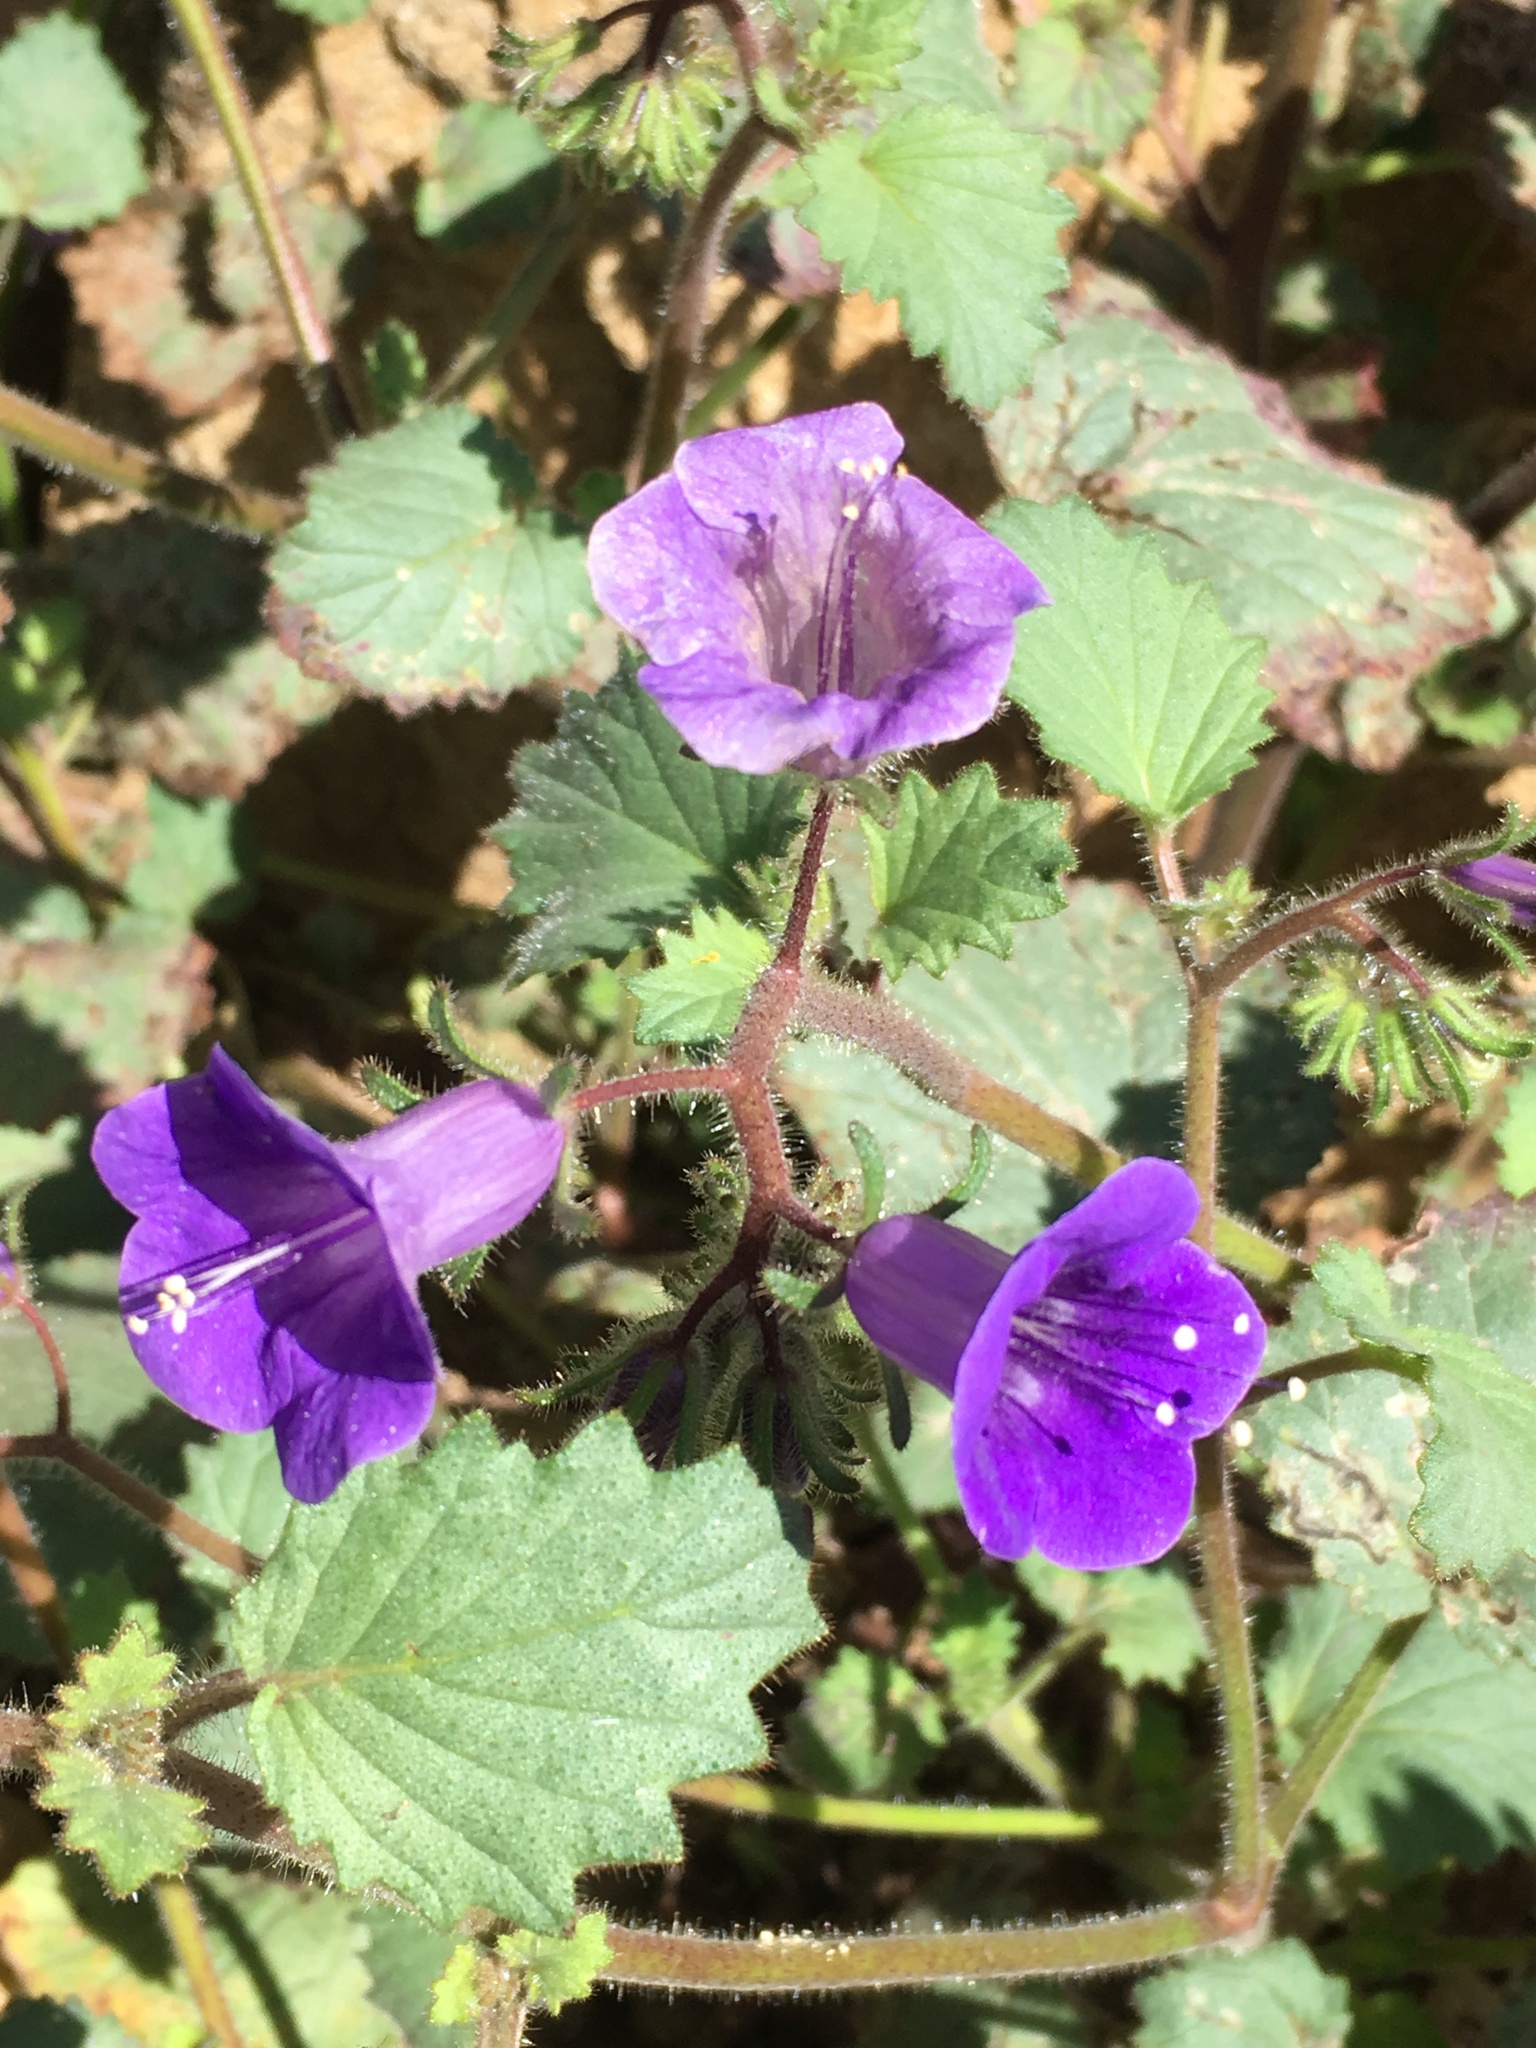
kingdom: Plantae
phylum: Tracheophyta
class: Magnoliopsida
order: Boraginales
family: Hydrophyllaceae
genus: Phacelia
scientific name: Phacelia minor
